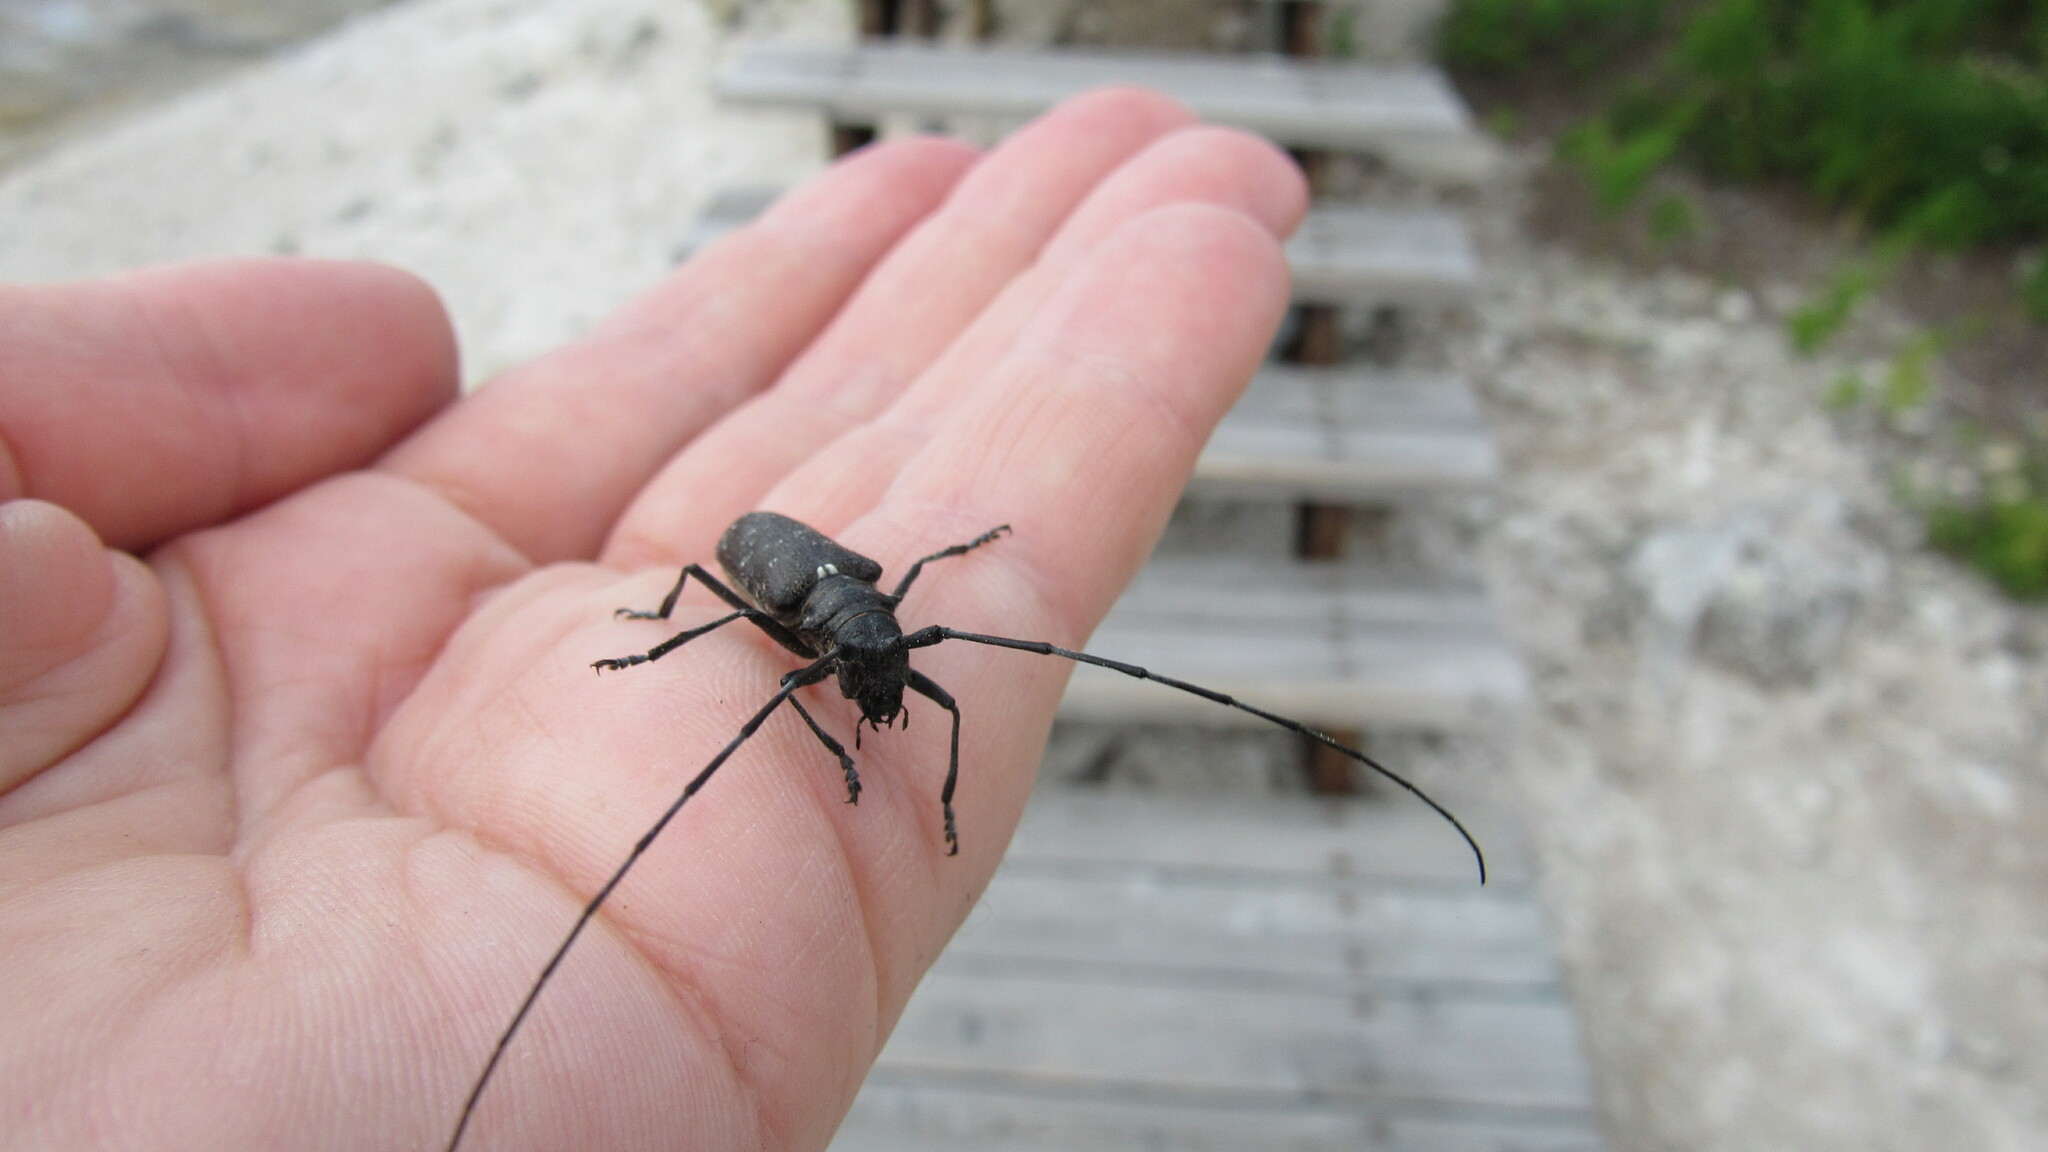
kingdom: Animalia
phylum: Arthropoda
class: Insecta
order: Coleoptera
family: Cerambycidae
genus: Monochamus
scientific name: Monochamus sutor
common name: Pine sawyer
